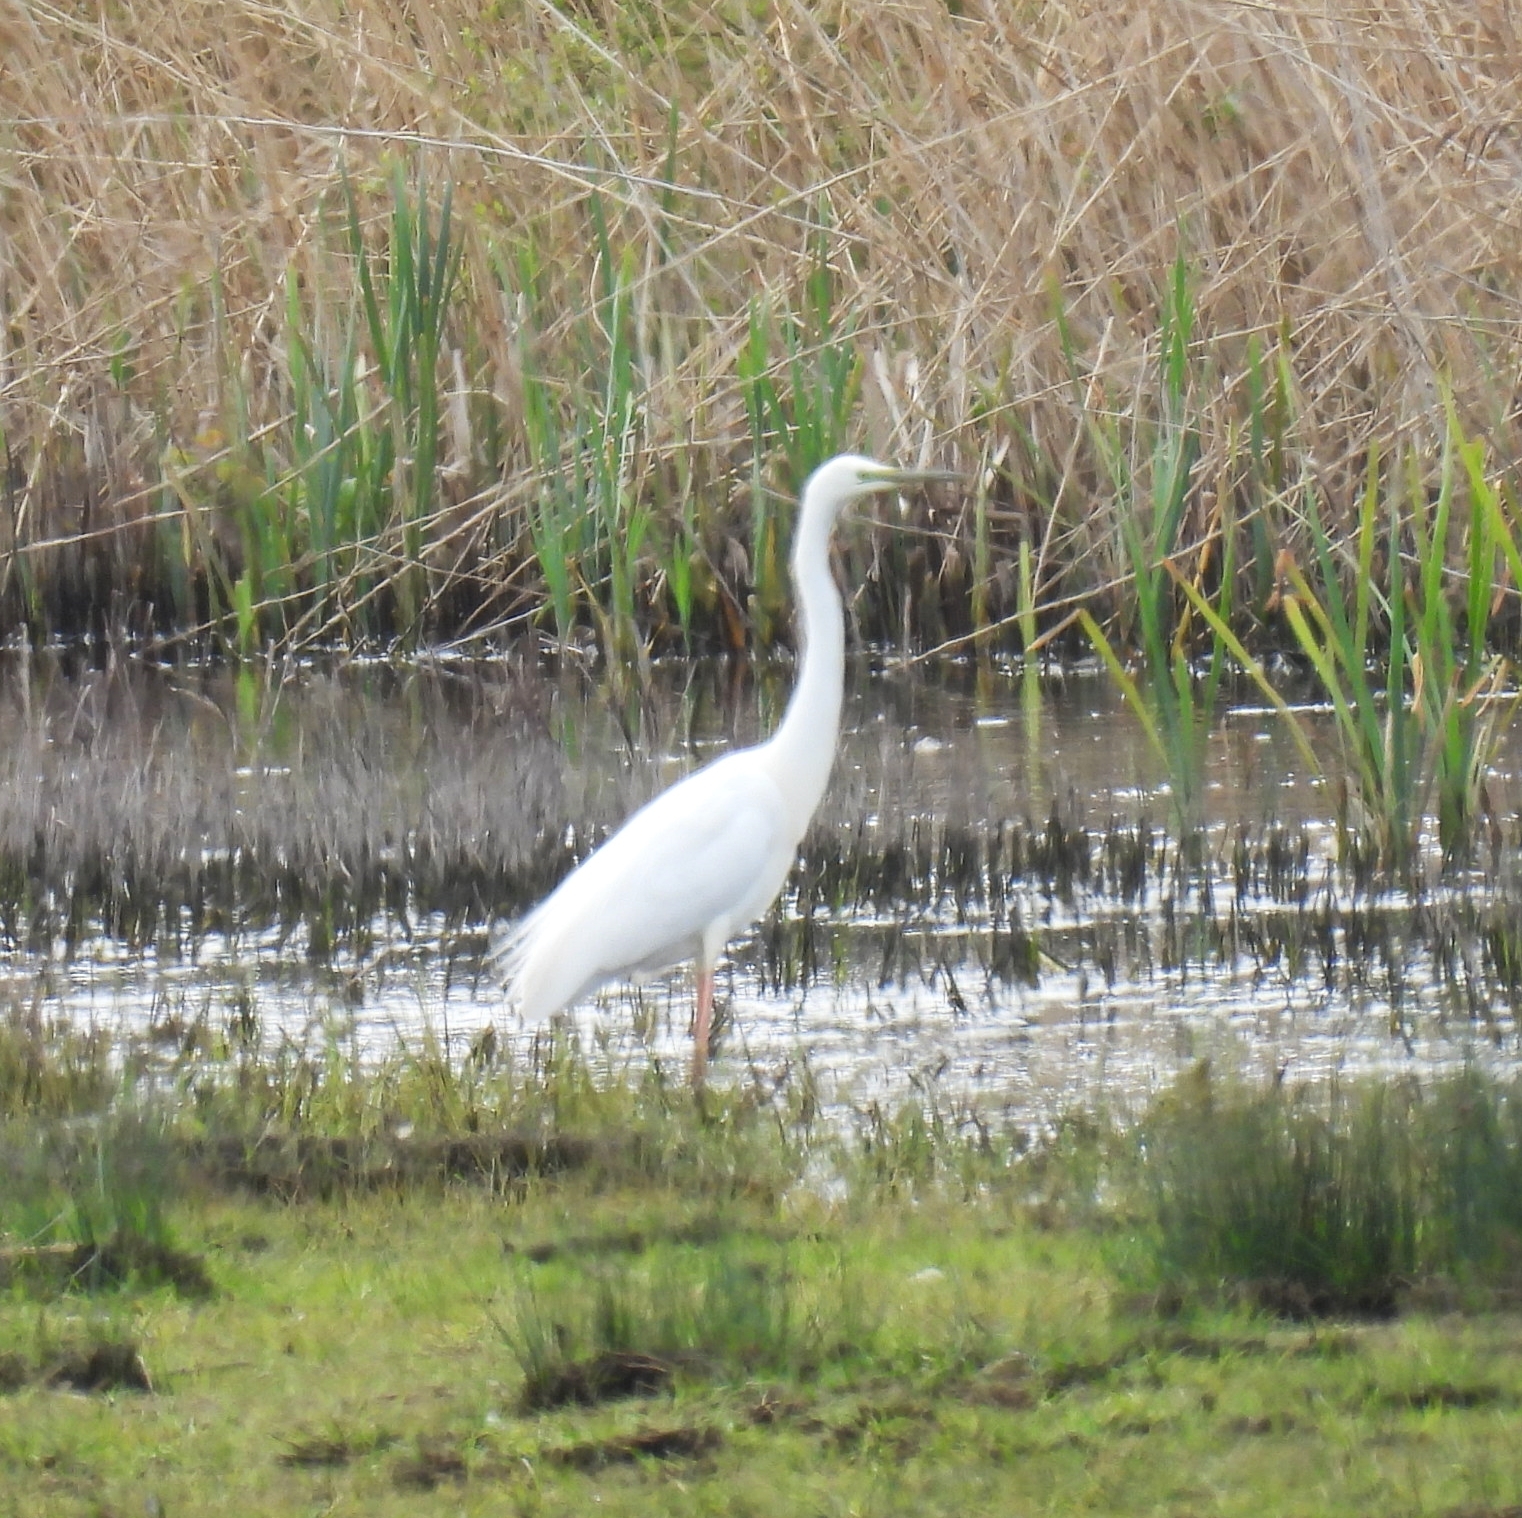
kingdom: Animalia
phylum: Chordata
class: Aves
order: Pelecaniformes
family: Ardeidae
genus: Ardea
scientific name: Ardea alba
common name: Great egret
